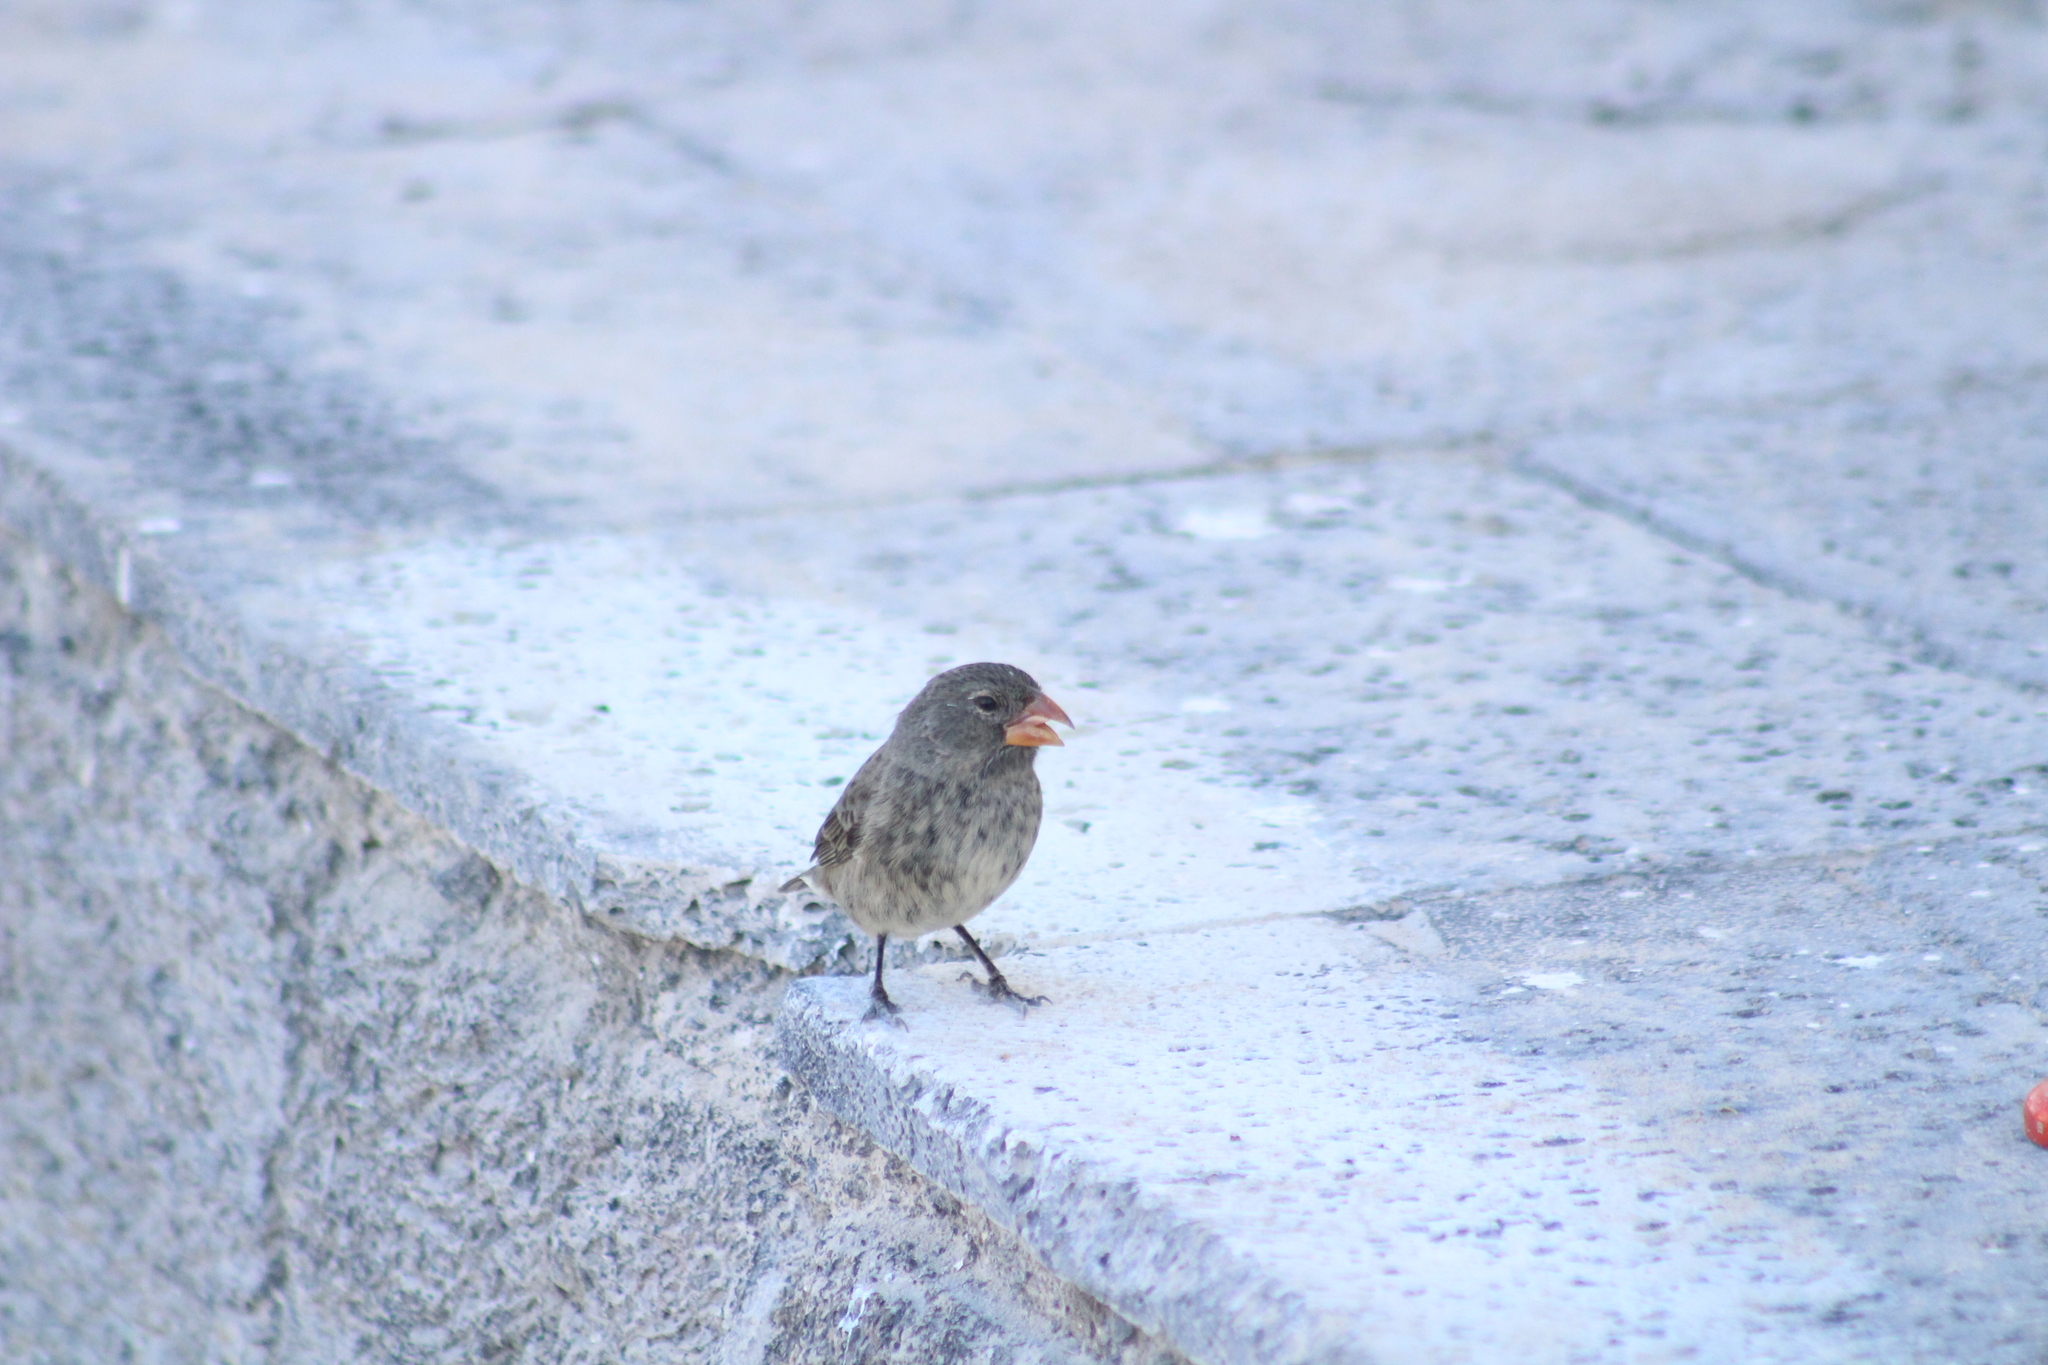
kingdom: Animalia
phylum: Chordata
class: Aves
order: Passeriformes
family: Thraupidae
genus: Geospiza
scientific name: Geospiza fortis
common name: Medium ground finch
